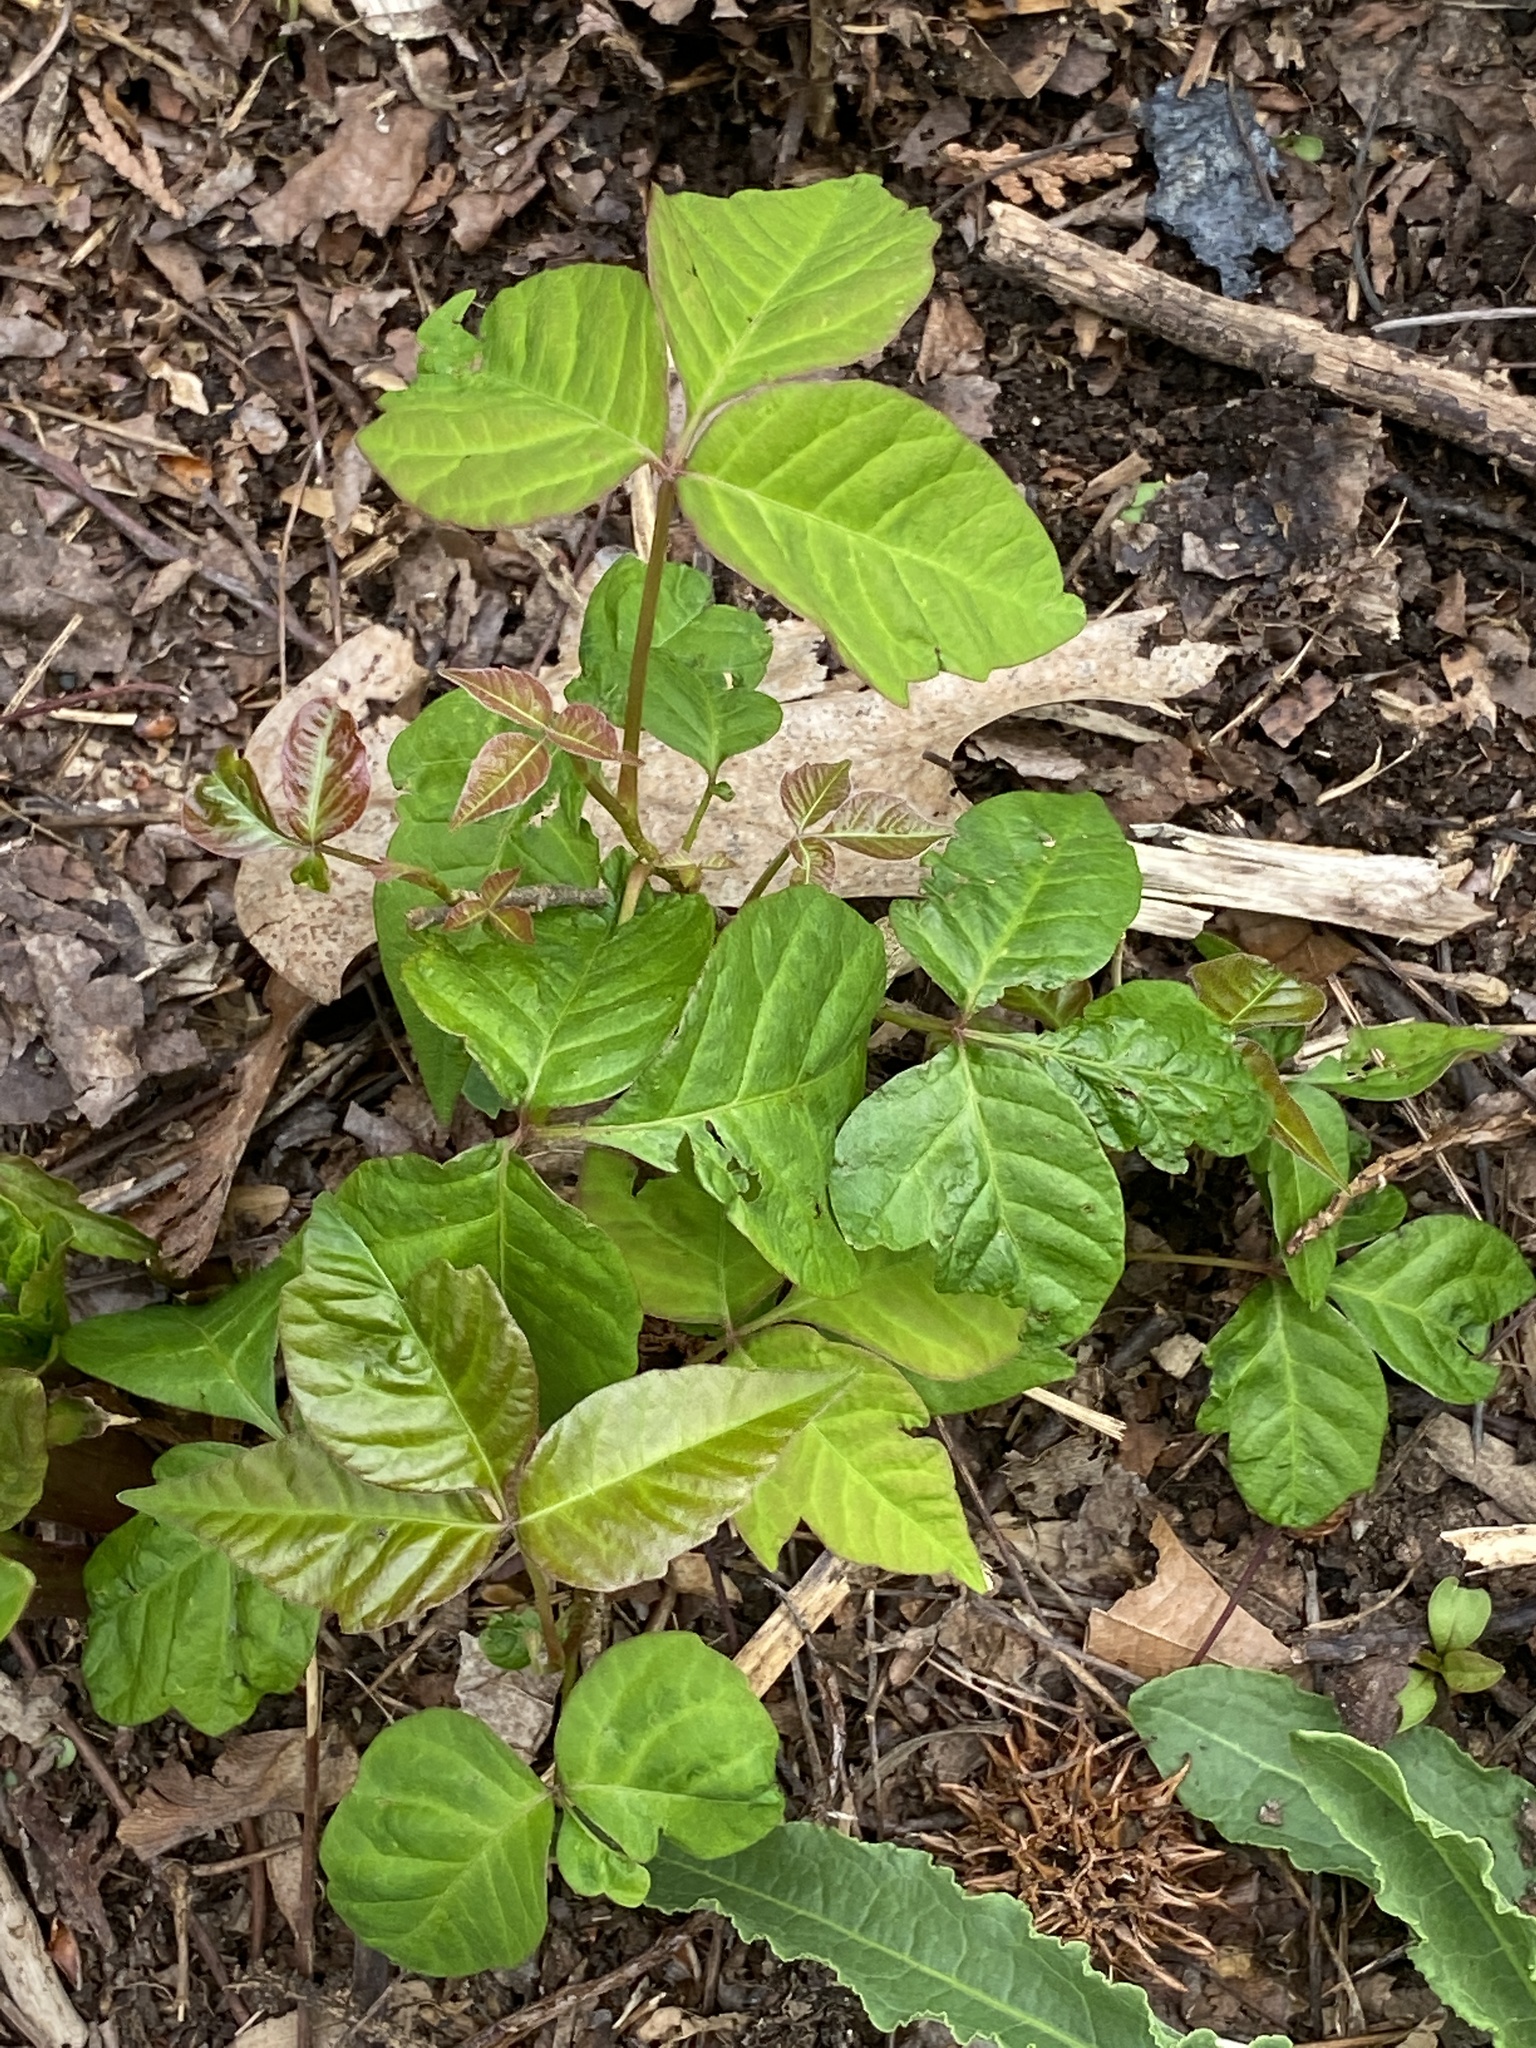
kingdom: Plantae
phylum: Tracheophyta
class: Magnoliopsida
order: Sapindales
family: Anacardiaceae
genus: Toxicodendron
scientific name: Toxicodendron radicans
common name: Poison ivy
